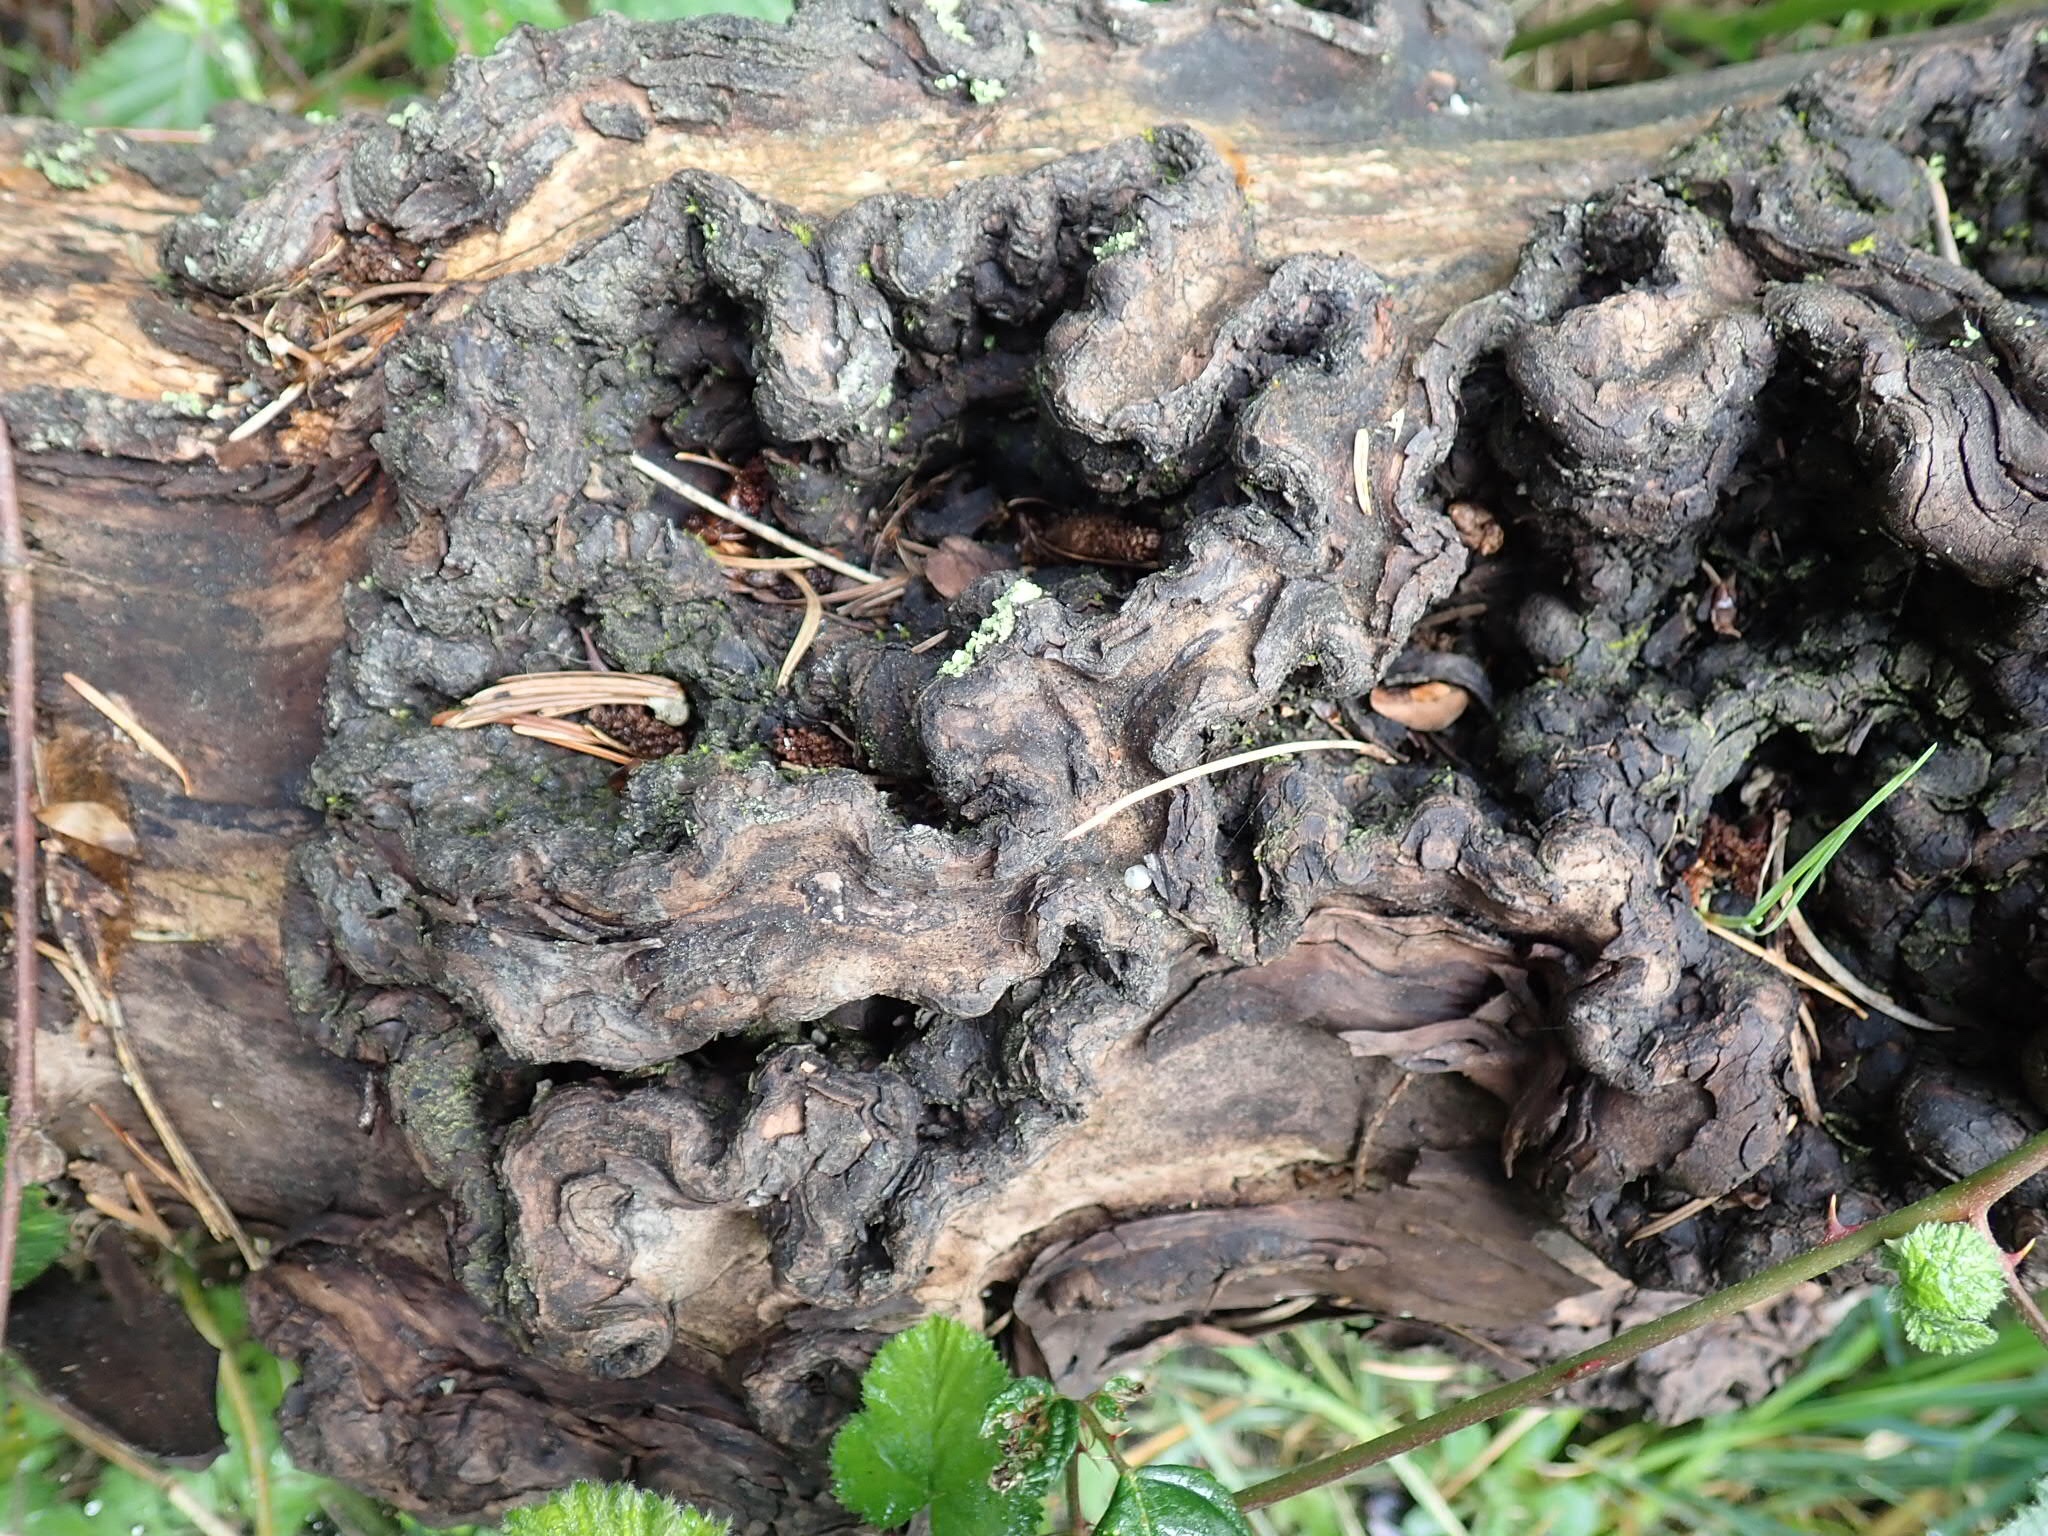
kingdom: Plantae
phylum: Tracheophyta
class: Magnoliopsida
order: Ericales
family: Ericaceae
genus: Arbutus
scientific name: Arbutus menziesii
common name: Pacific madrone
